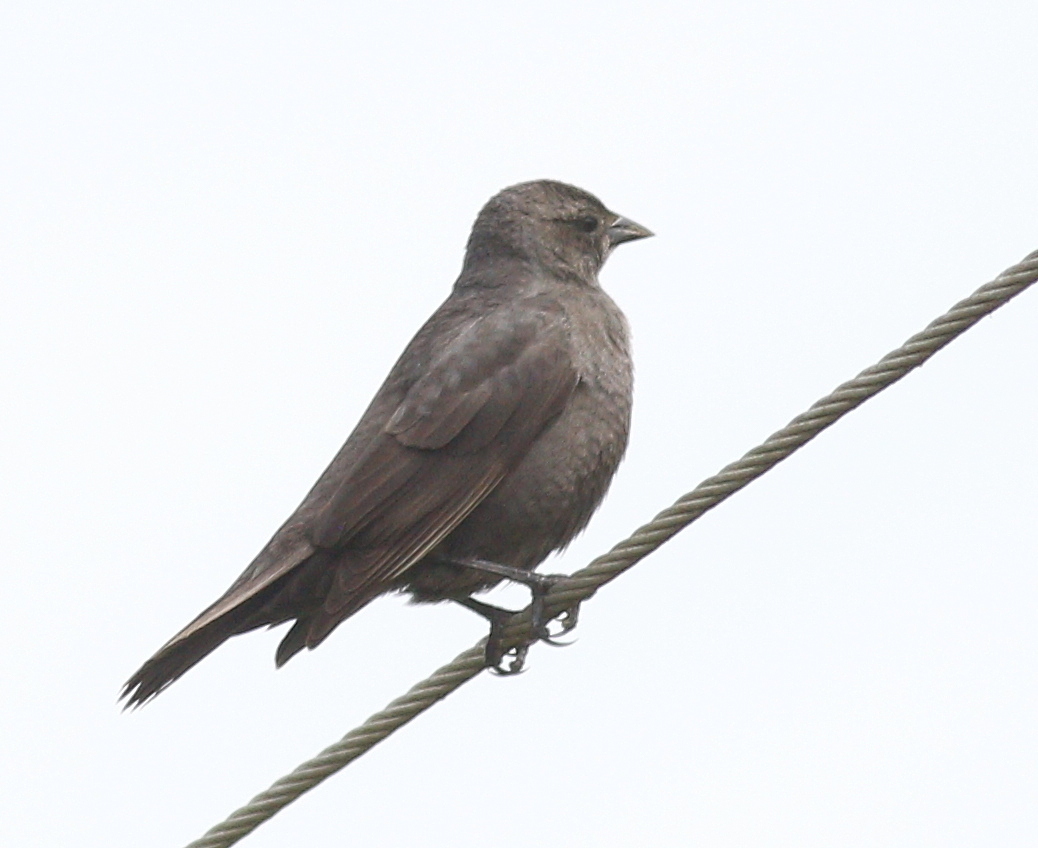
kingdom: Animalia
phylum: Chordata
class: Aves
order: Passeriformes
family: Icteridae
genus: Molothrus
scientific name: Molothrus bonariensis
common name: Shiny cowbird
